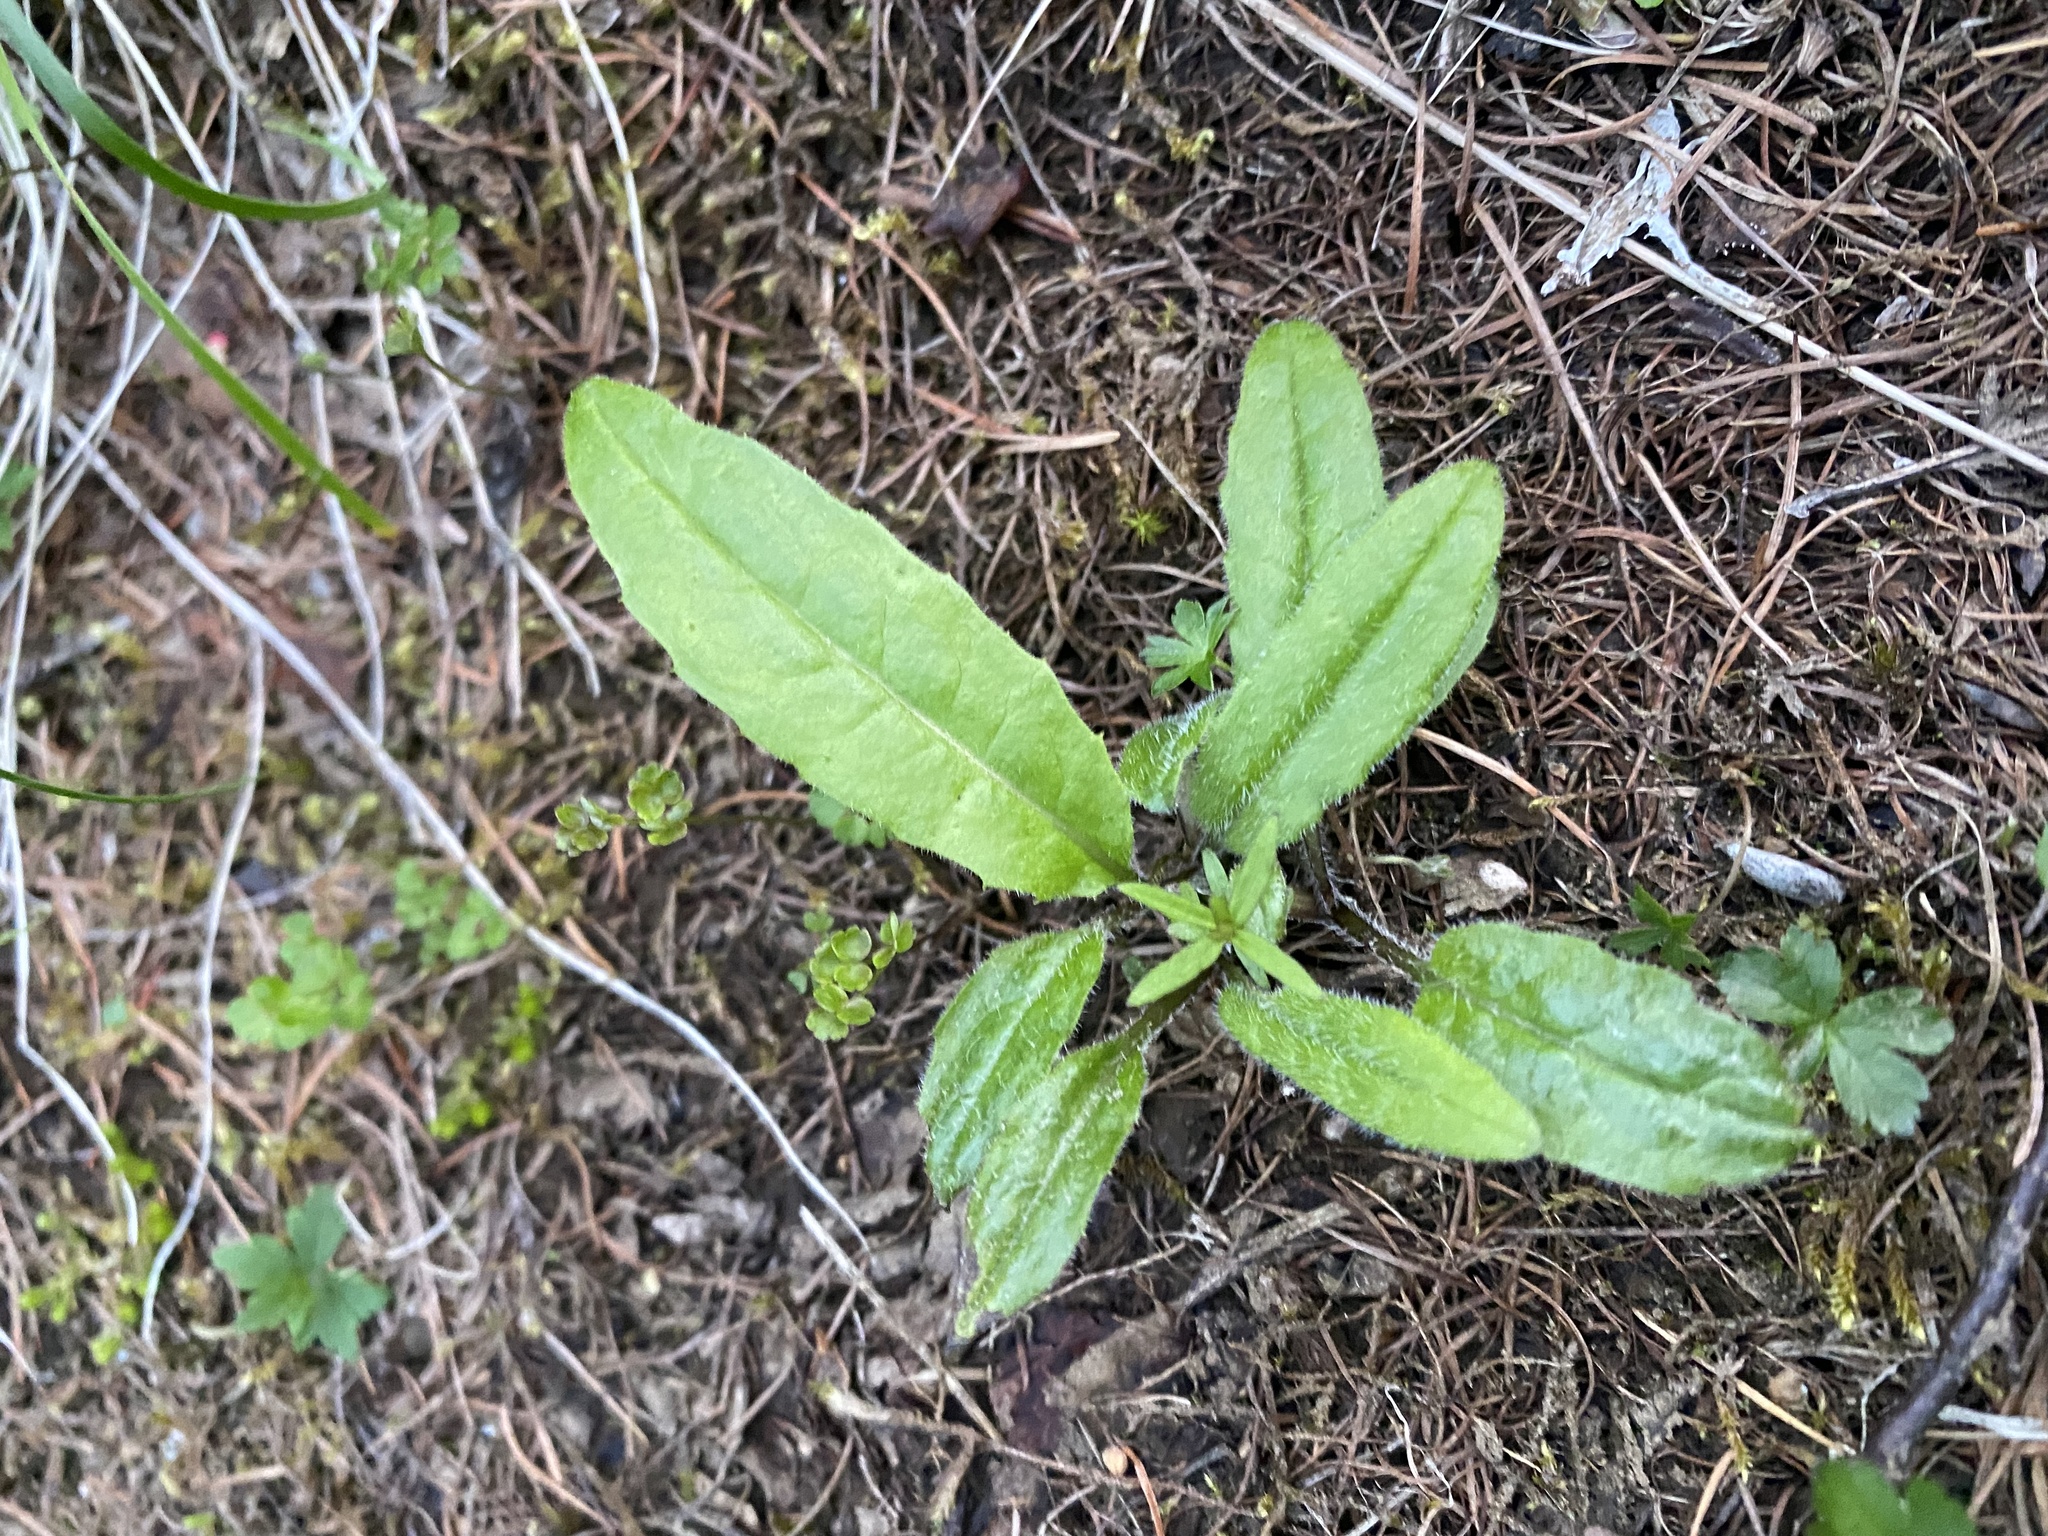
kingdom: Plantae
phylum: Tracheophyta
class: Magnoliopsida
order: Asterales
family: Asteraceae
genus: Saussurea
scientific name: Saussurea parviflora
